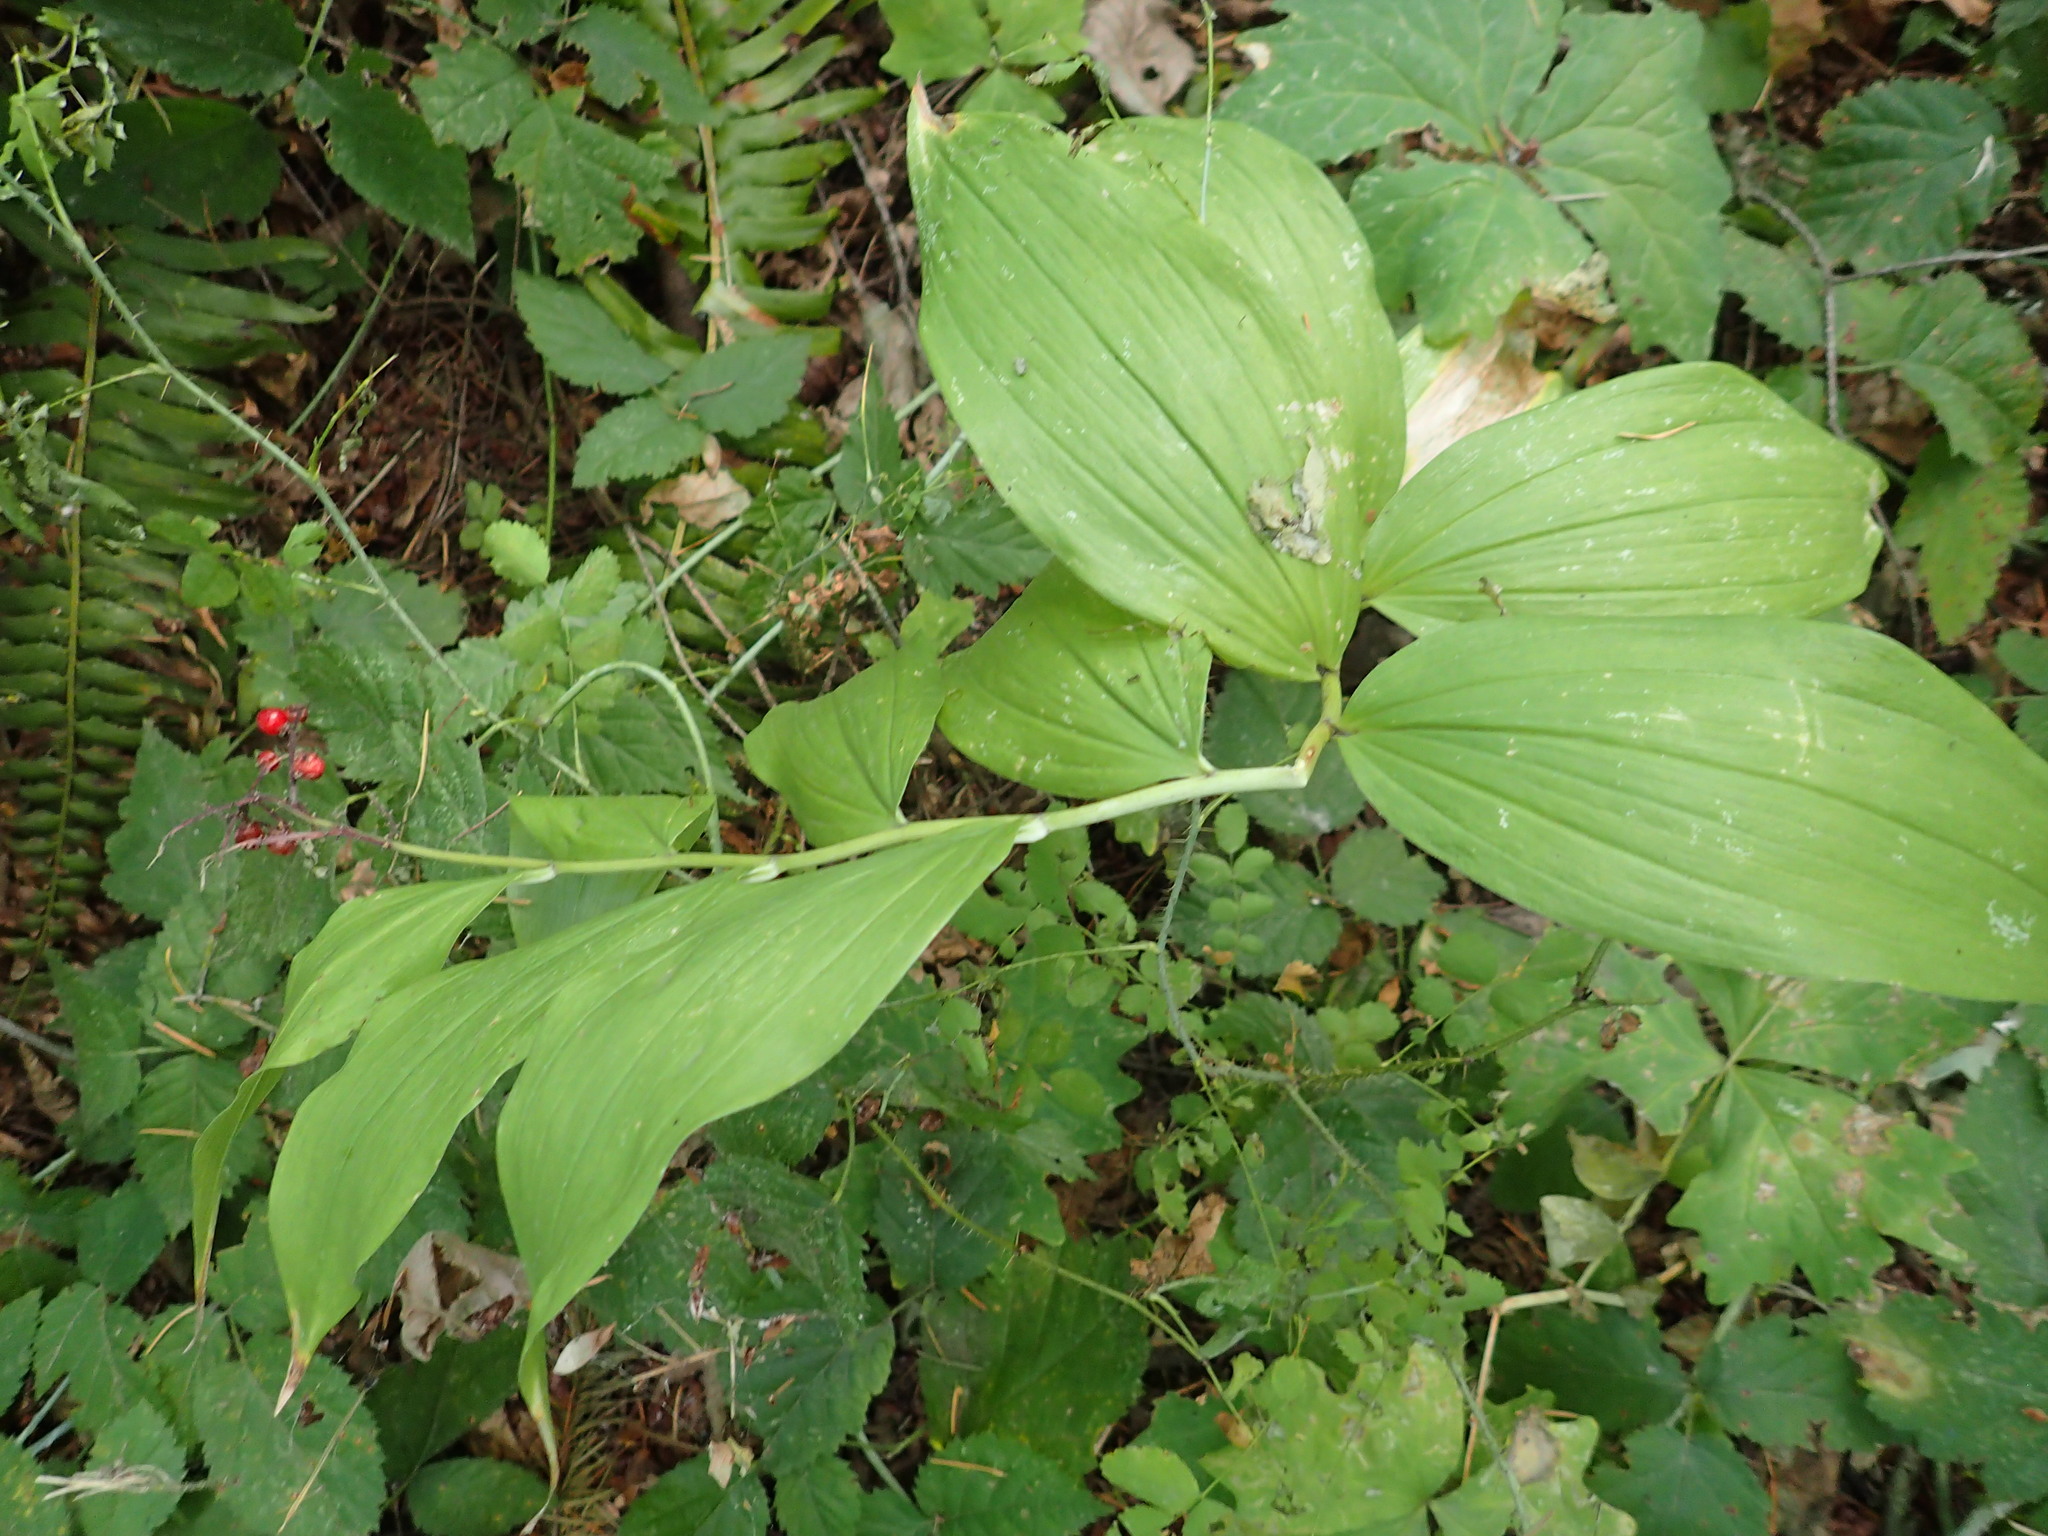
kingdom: Plantae
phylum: Tracheophyta
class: Liliopsida
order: Asparagales
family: Asparagaceae
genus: Maianthemum
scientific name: Maianthemum racemosum
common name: False spikenard
